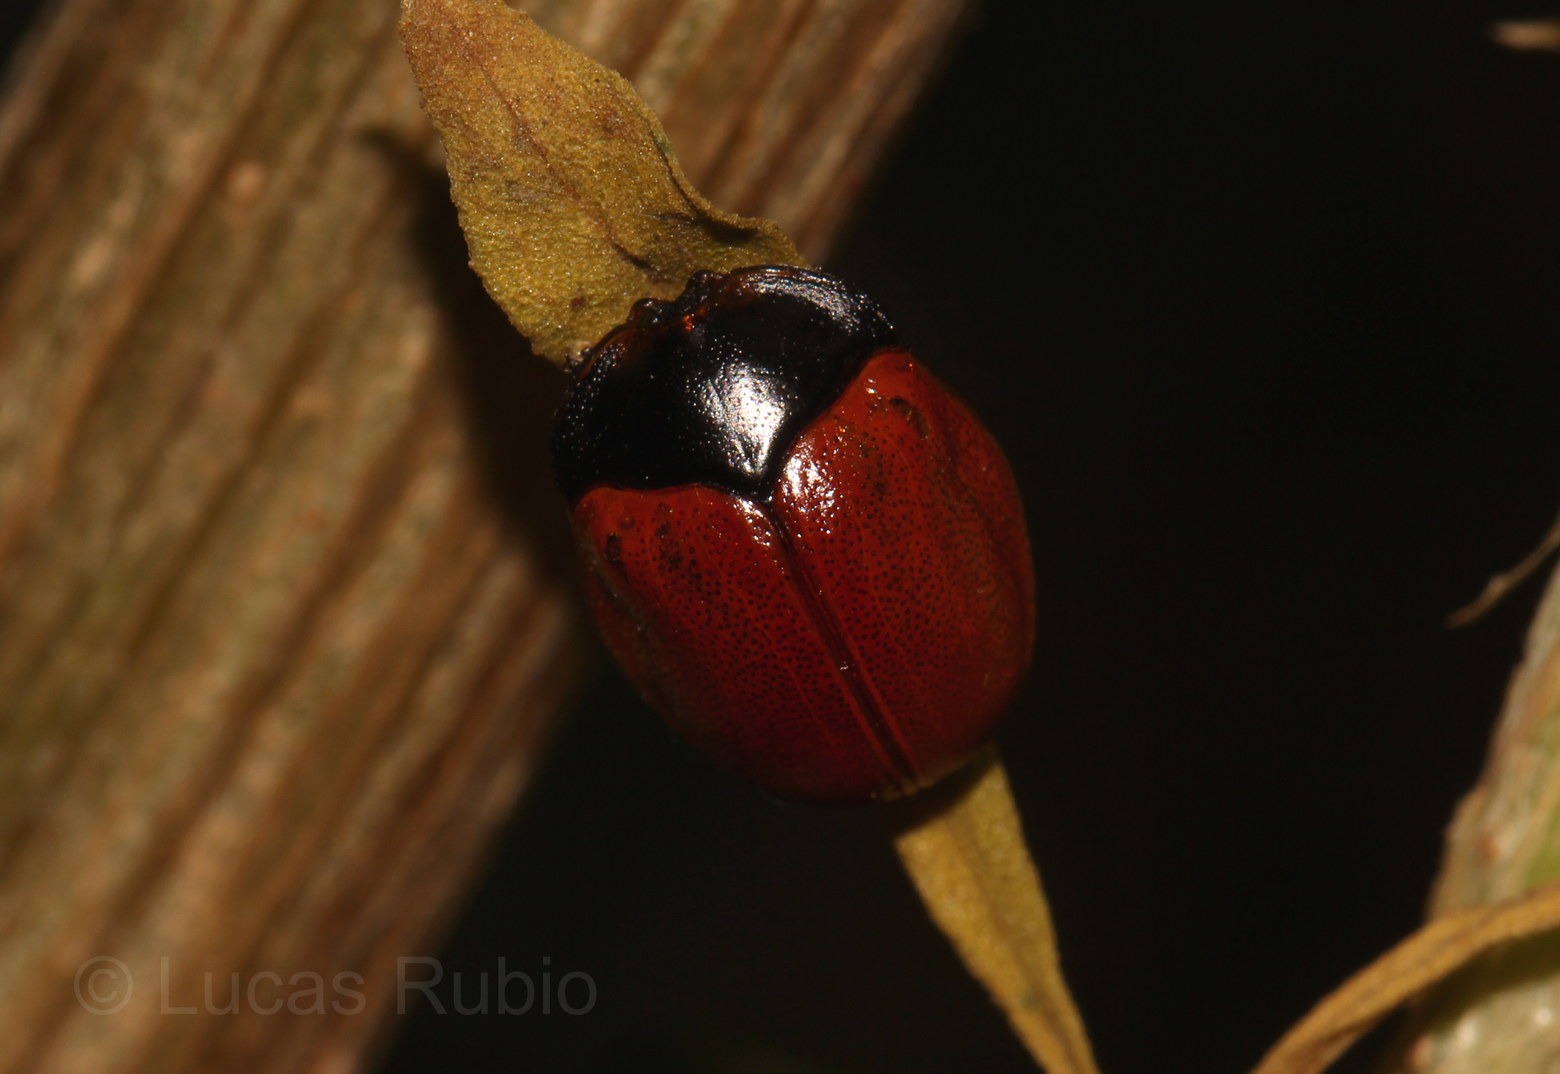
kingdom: Animalia
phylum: Arthropoda
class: Insecta
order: Coleoptera
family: Chrysomelidae
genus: Chelymorpha
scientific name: Chelymorpha cribraria
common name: Tortoise beetle
